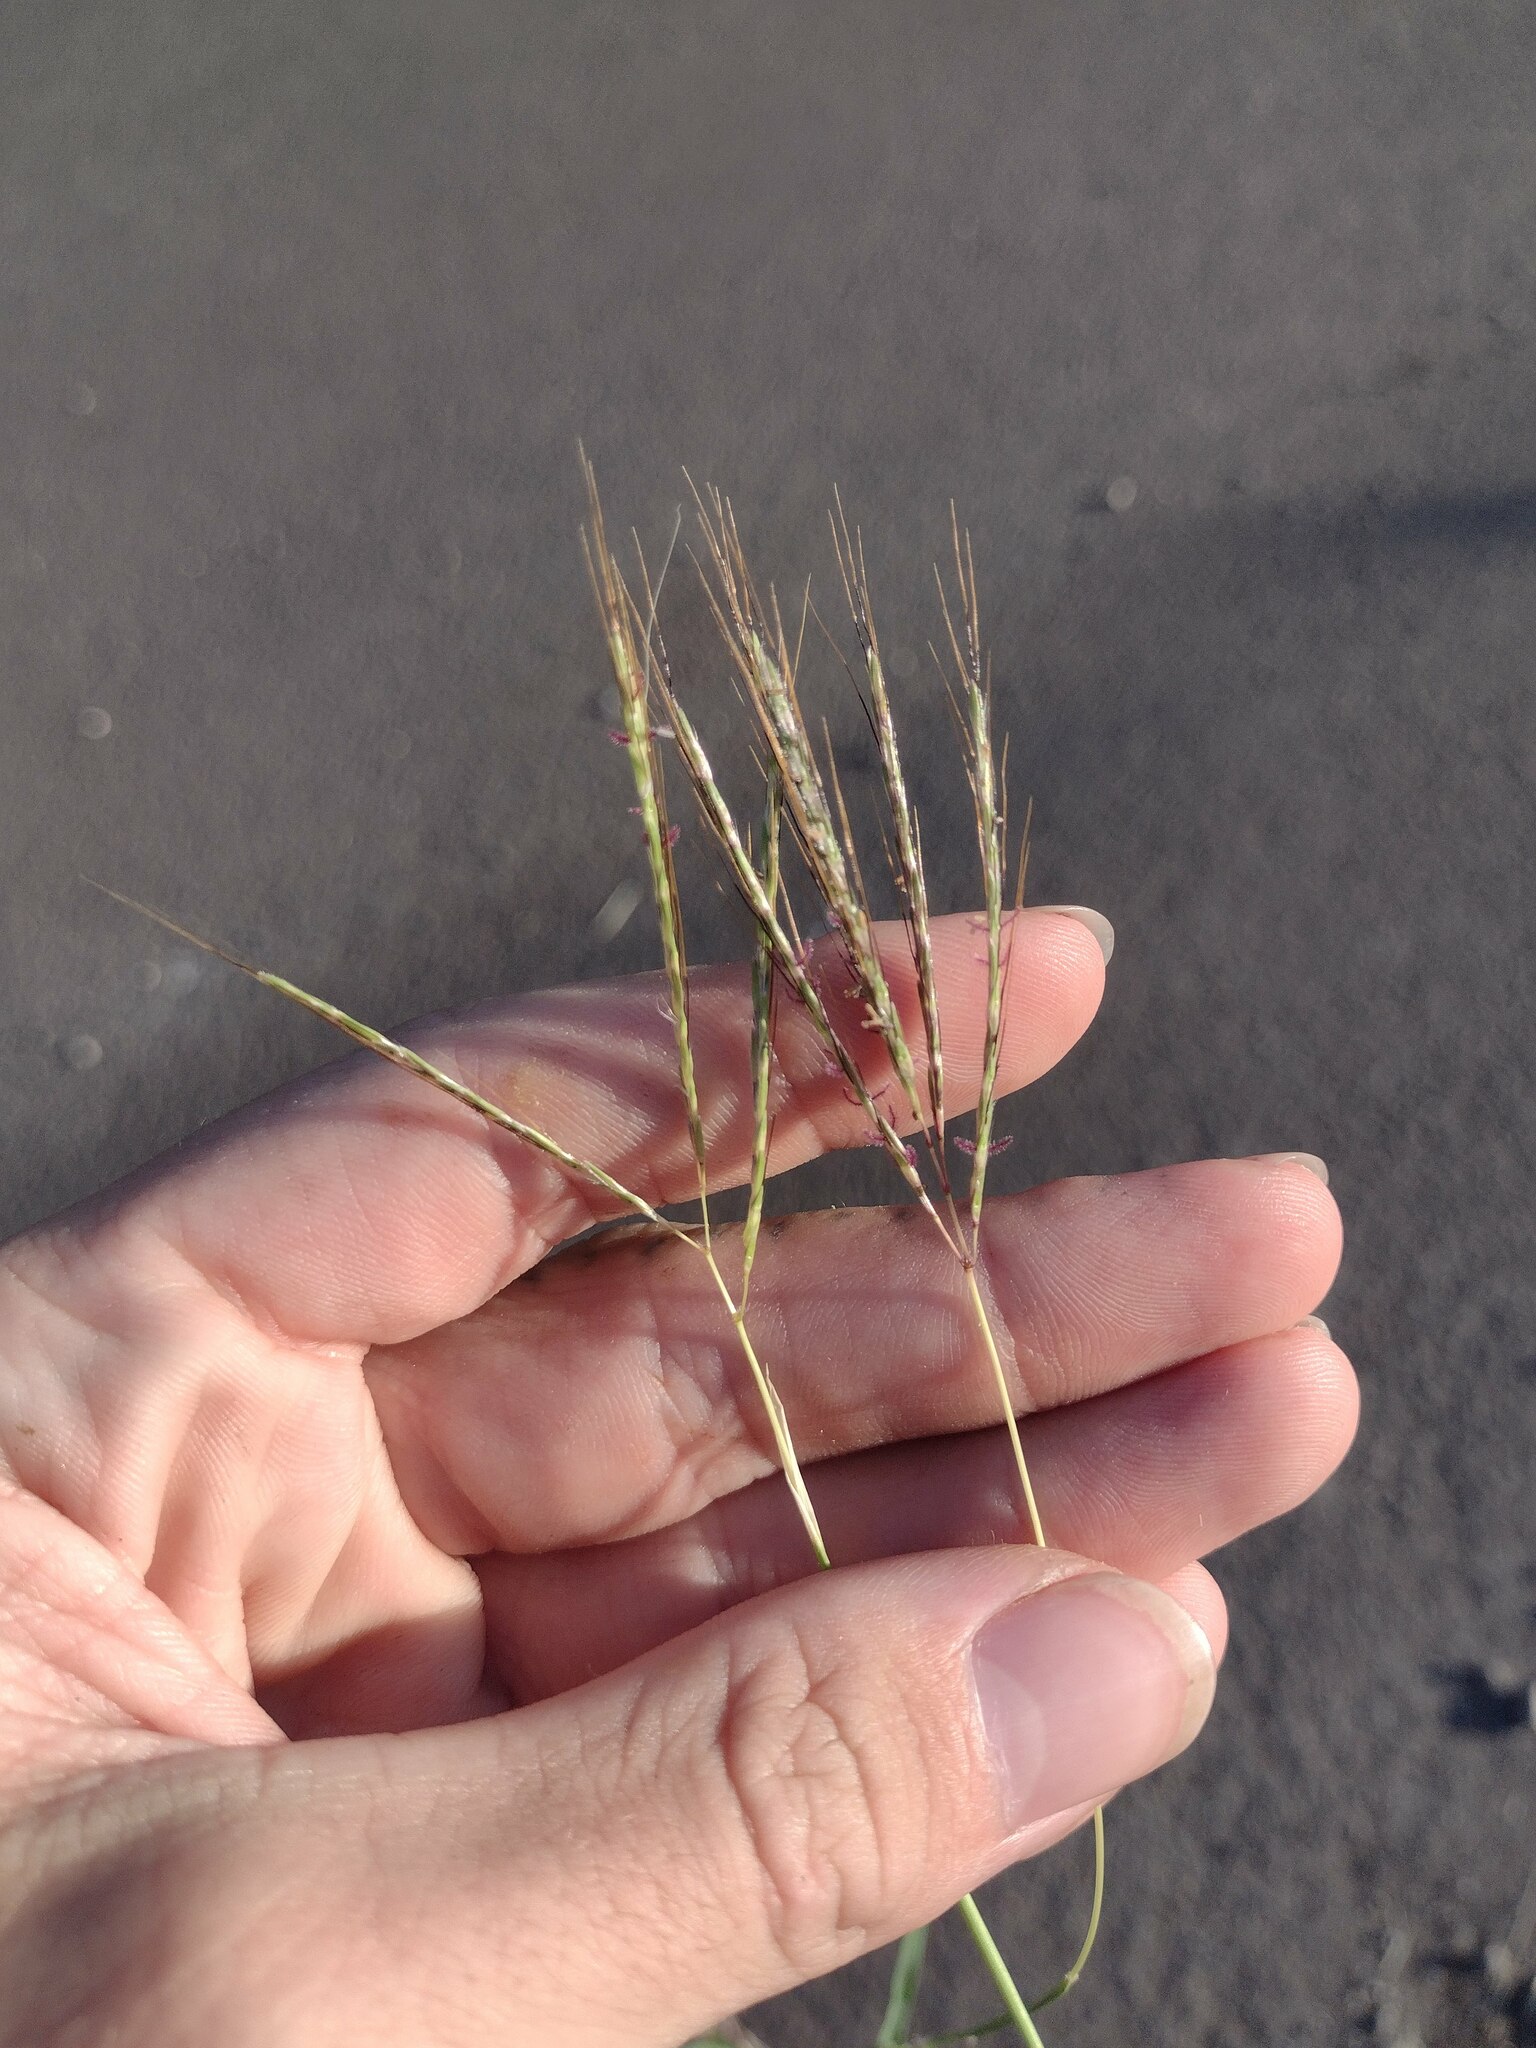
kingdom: Plantae
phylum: Tracheophyta
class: Liliopsida
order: Poales
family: Poaceae
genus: Bothriochloa
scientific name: Bothriochloa pertusa
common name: Pitted beardgrass
